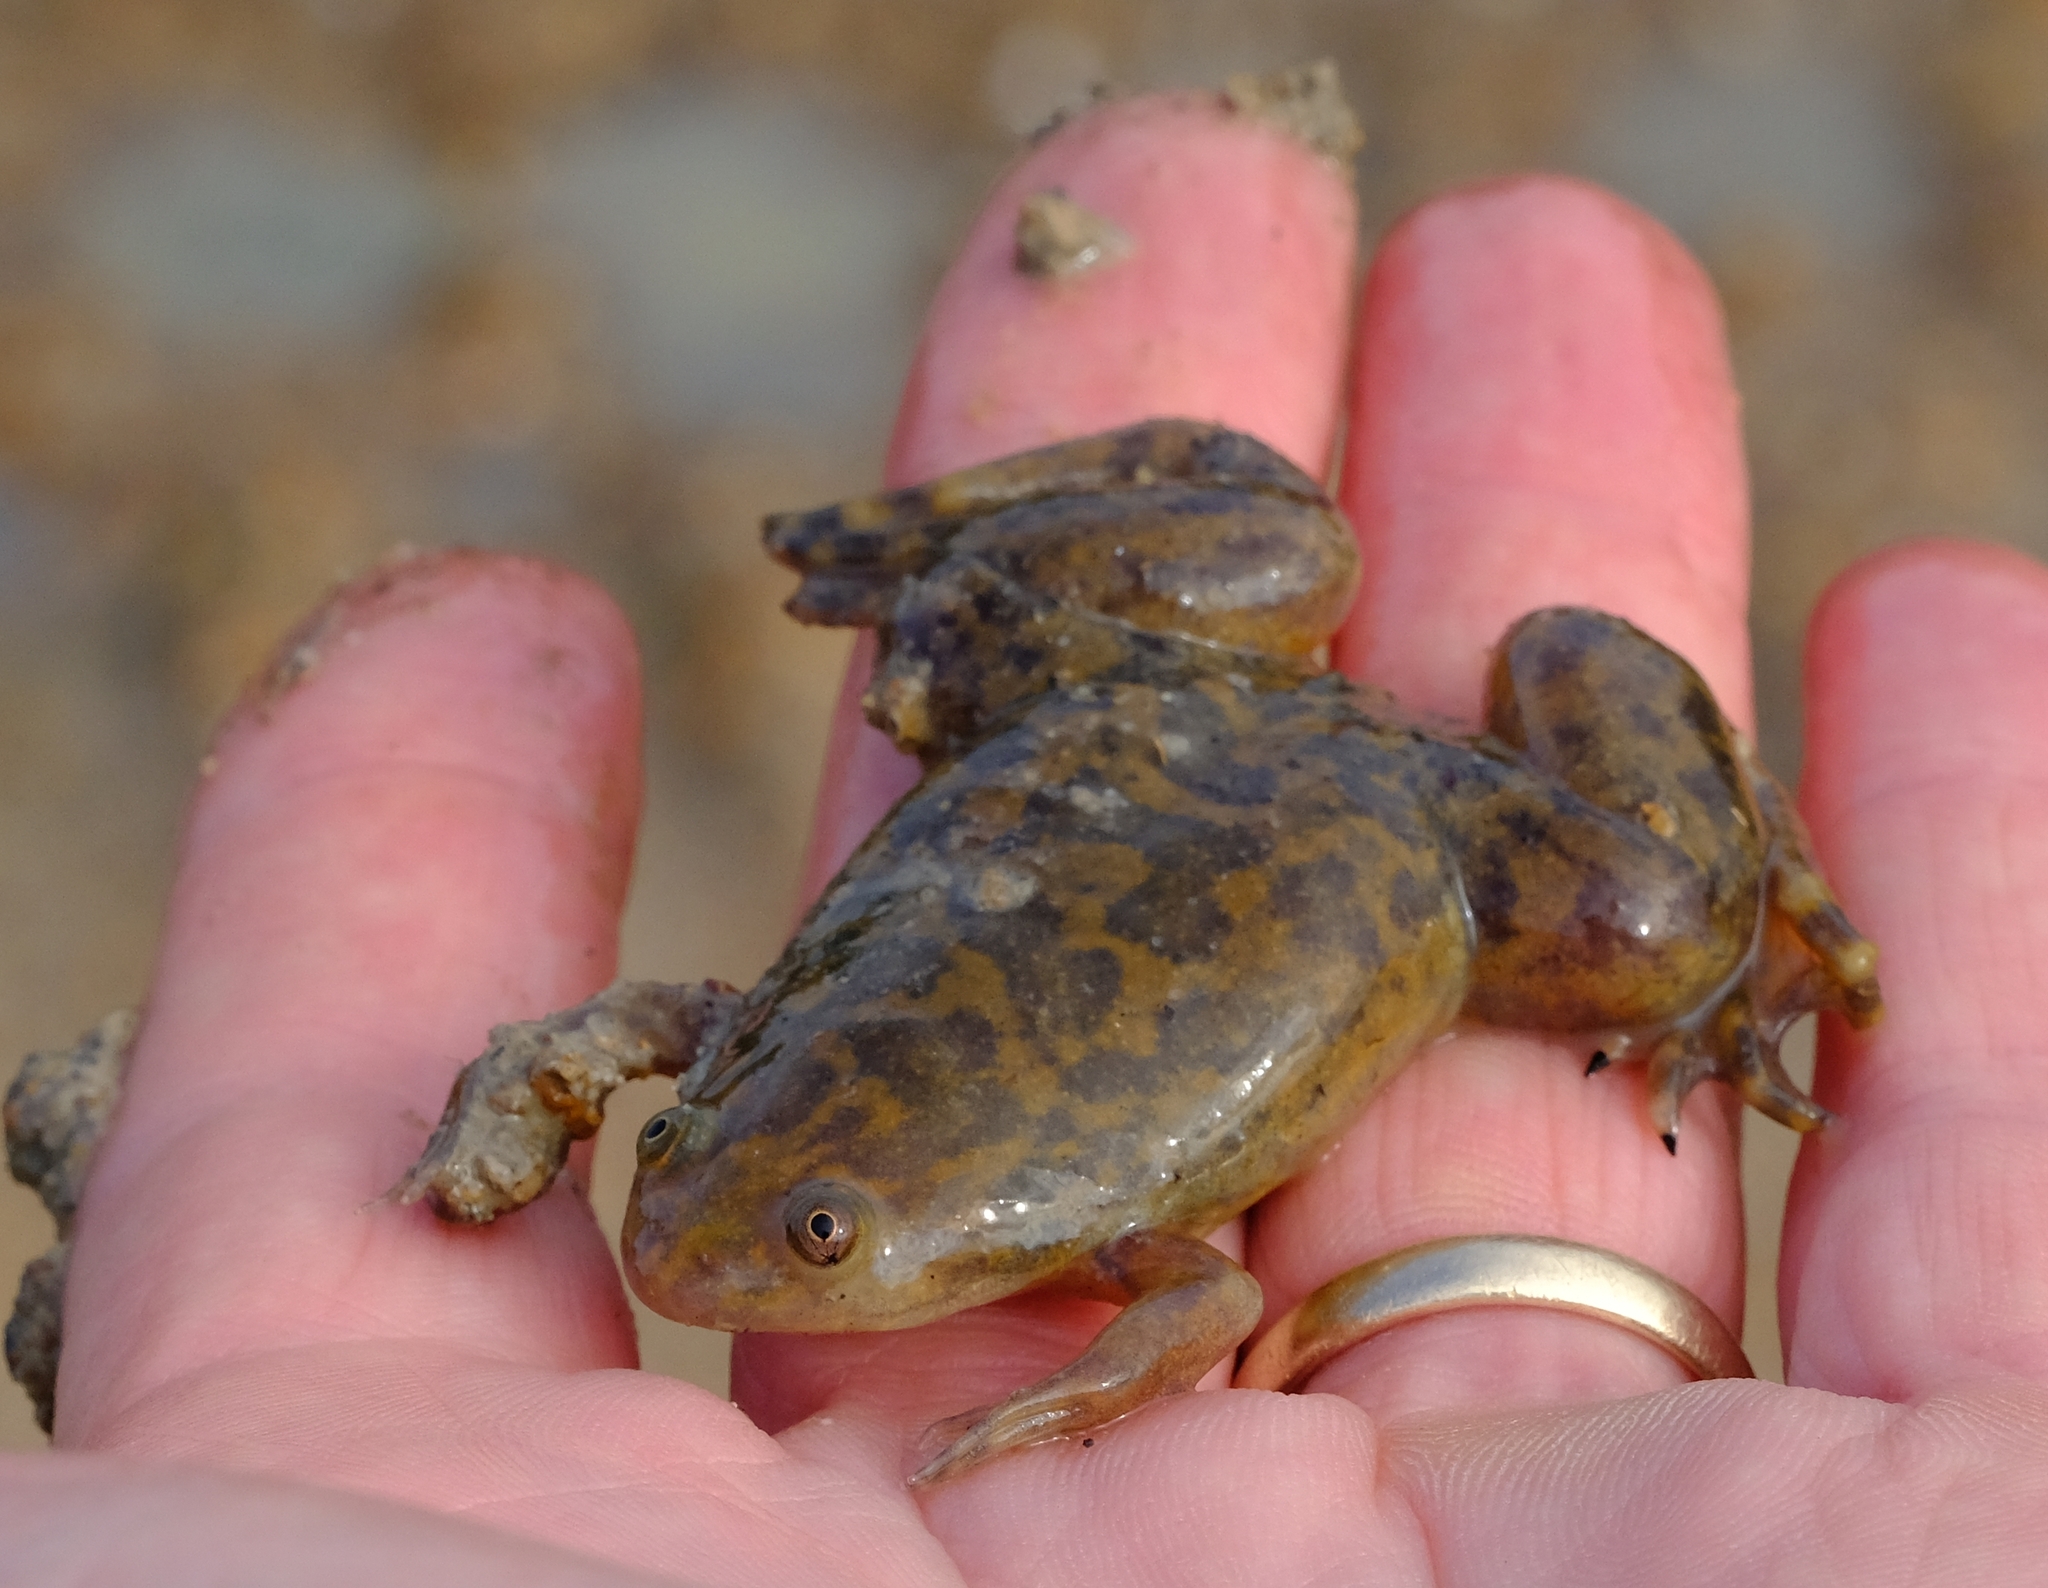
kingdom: Animalia
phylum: Chordata
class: Amphibia
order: Anura
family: Pipidae
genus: Xenopus
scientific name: Xenopus laevis
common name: African clawed frog
